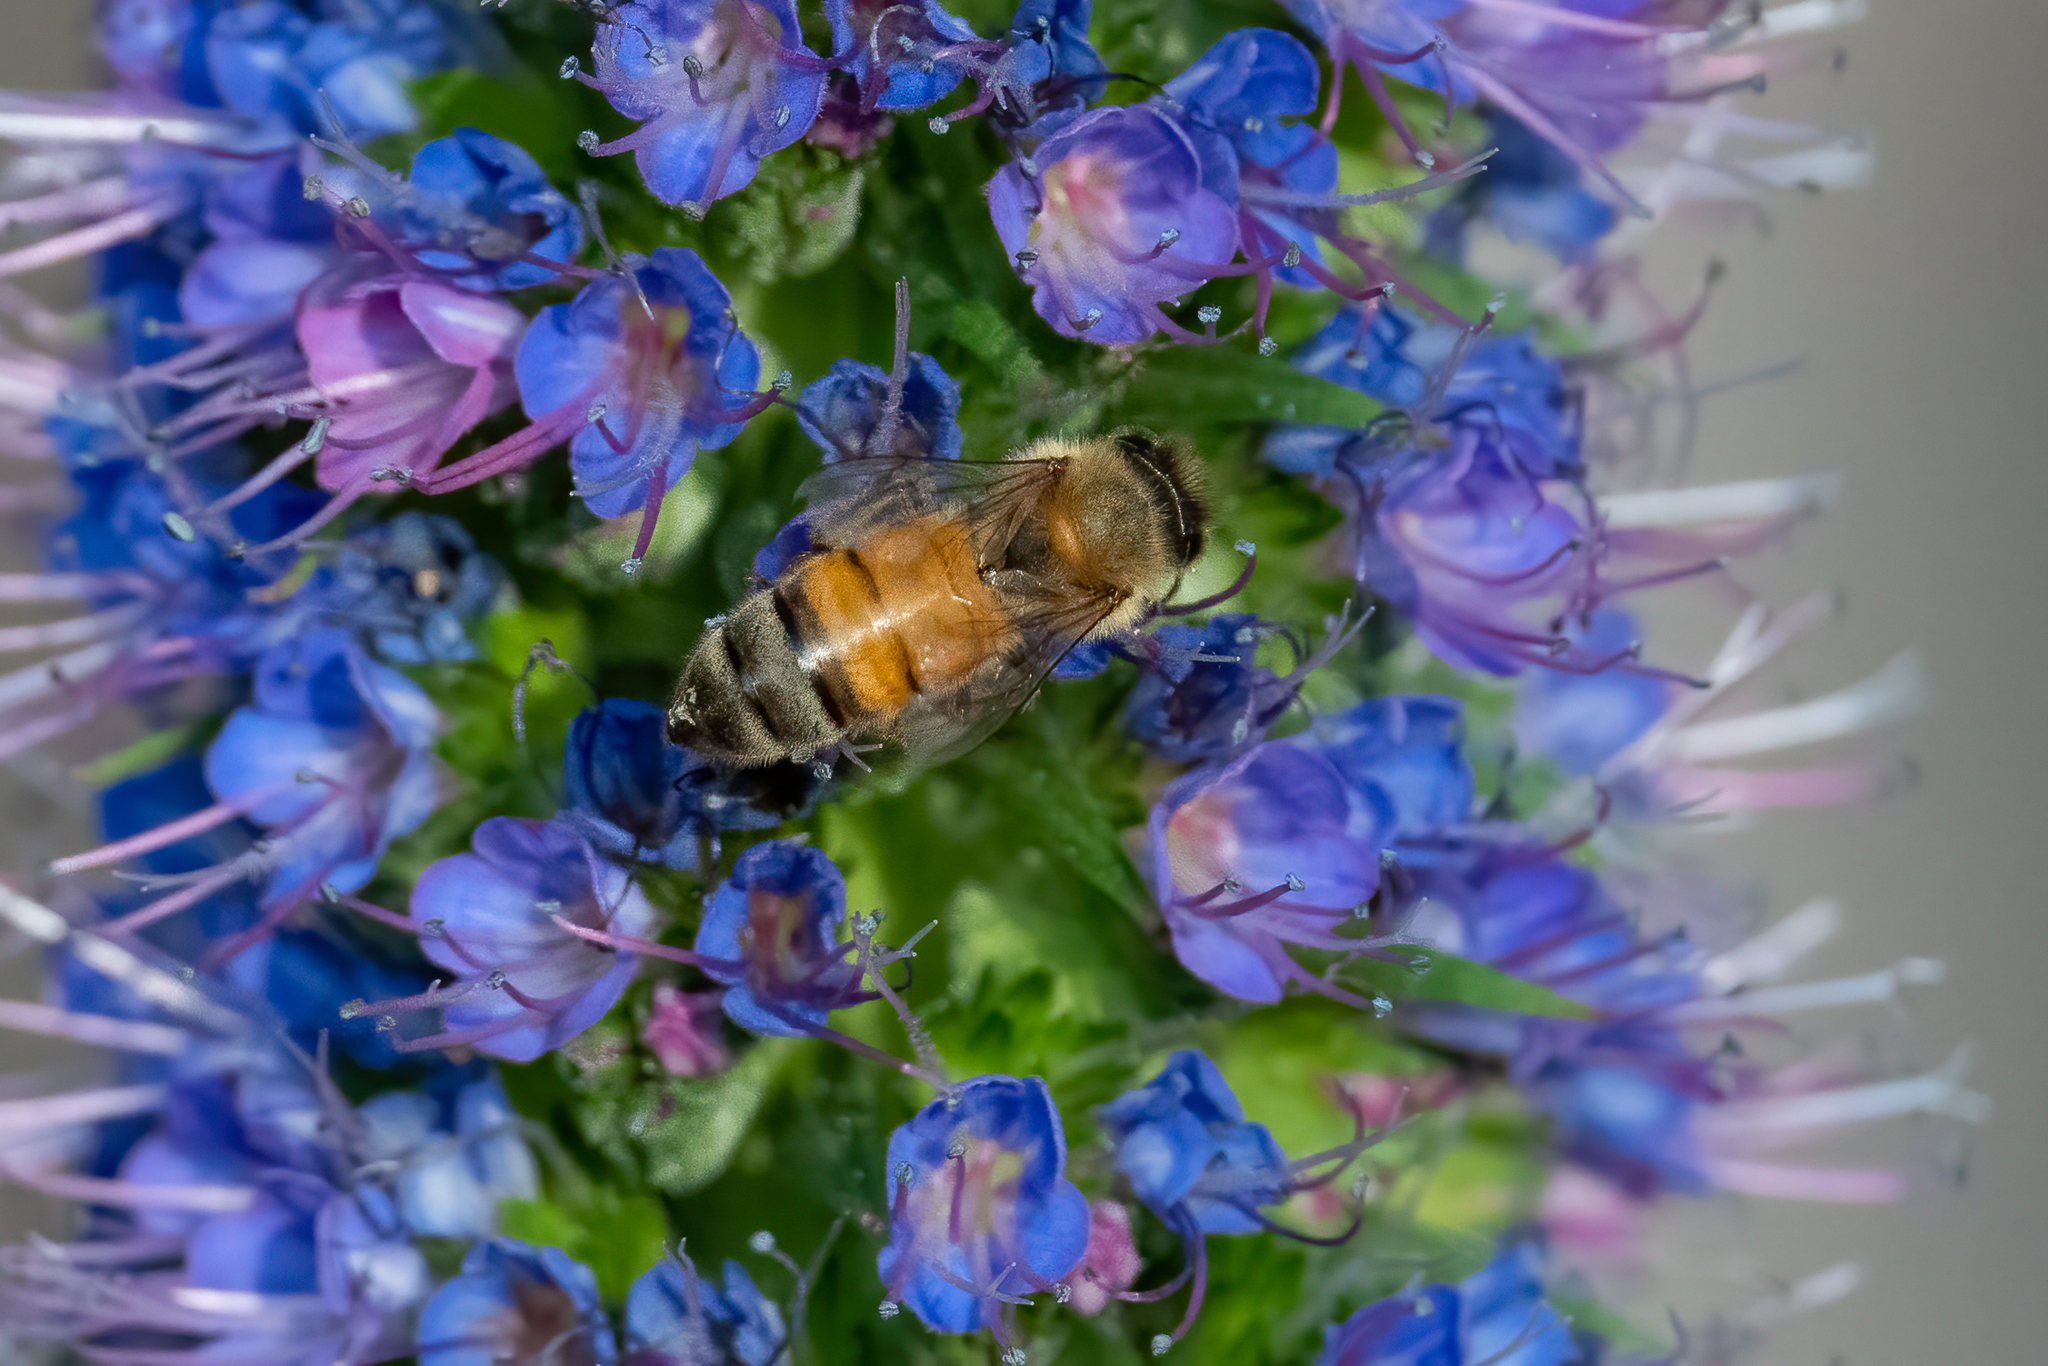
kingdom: Animalia
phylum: Arthropoda
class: Insecta
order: Hymenoptera
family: Apidae
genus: Apis
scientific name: Apis mellifera
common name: Honey bee
